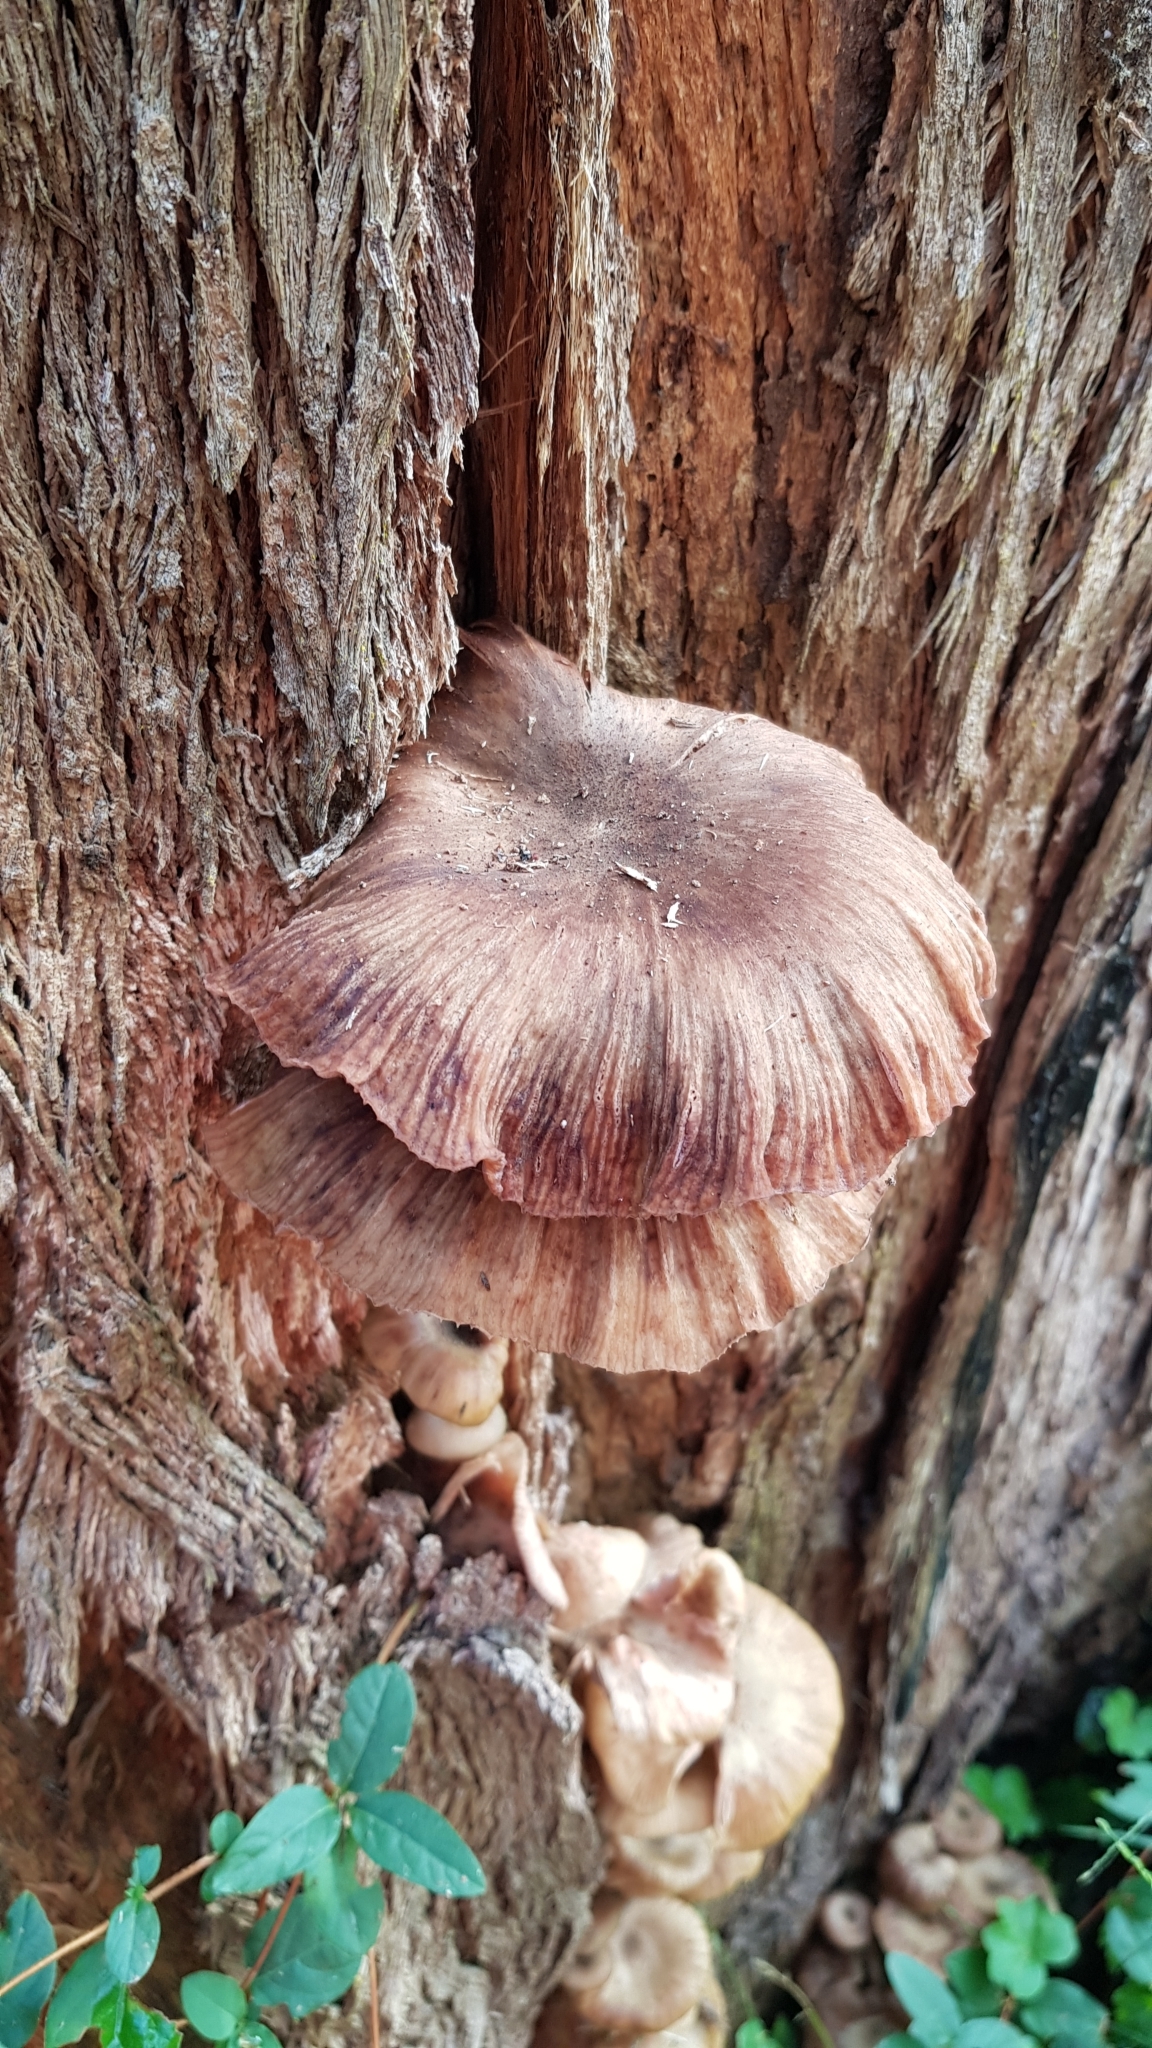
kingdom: Fungi
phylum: Basidiomycota
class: Agaricomycetes
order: Agaricales
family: Physalacriaceae
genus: Armillaria
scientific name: Armillaria novae-zelandiae
